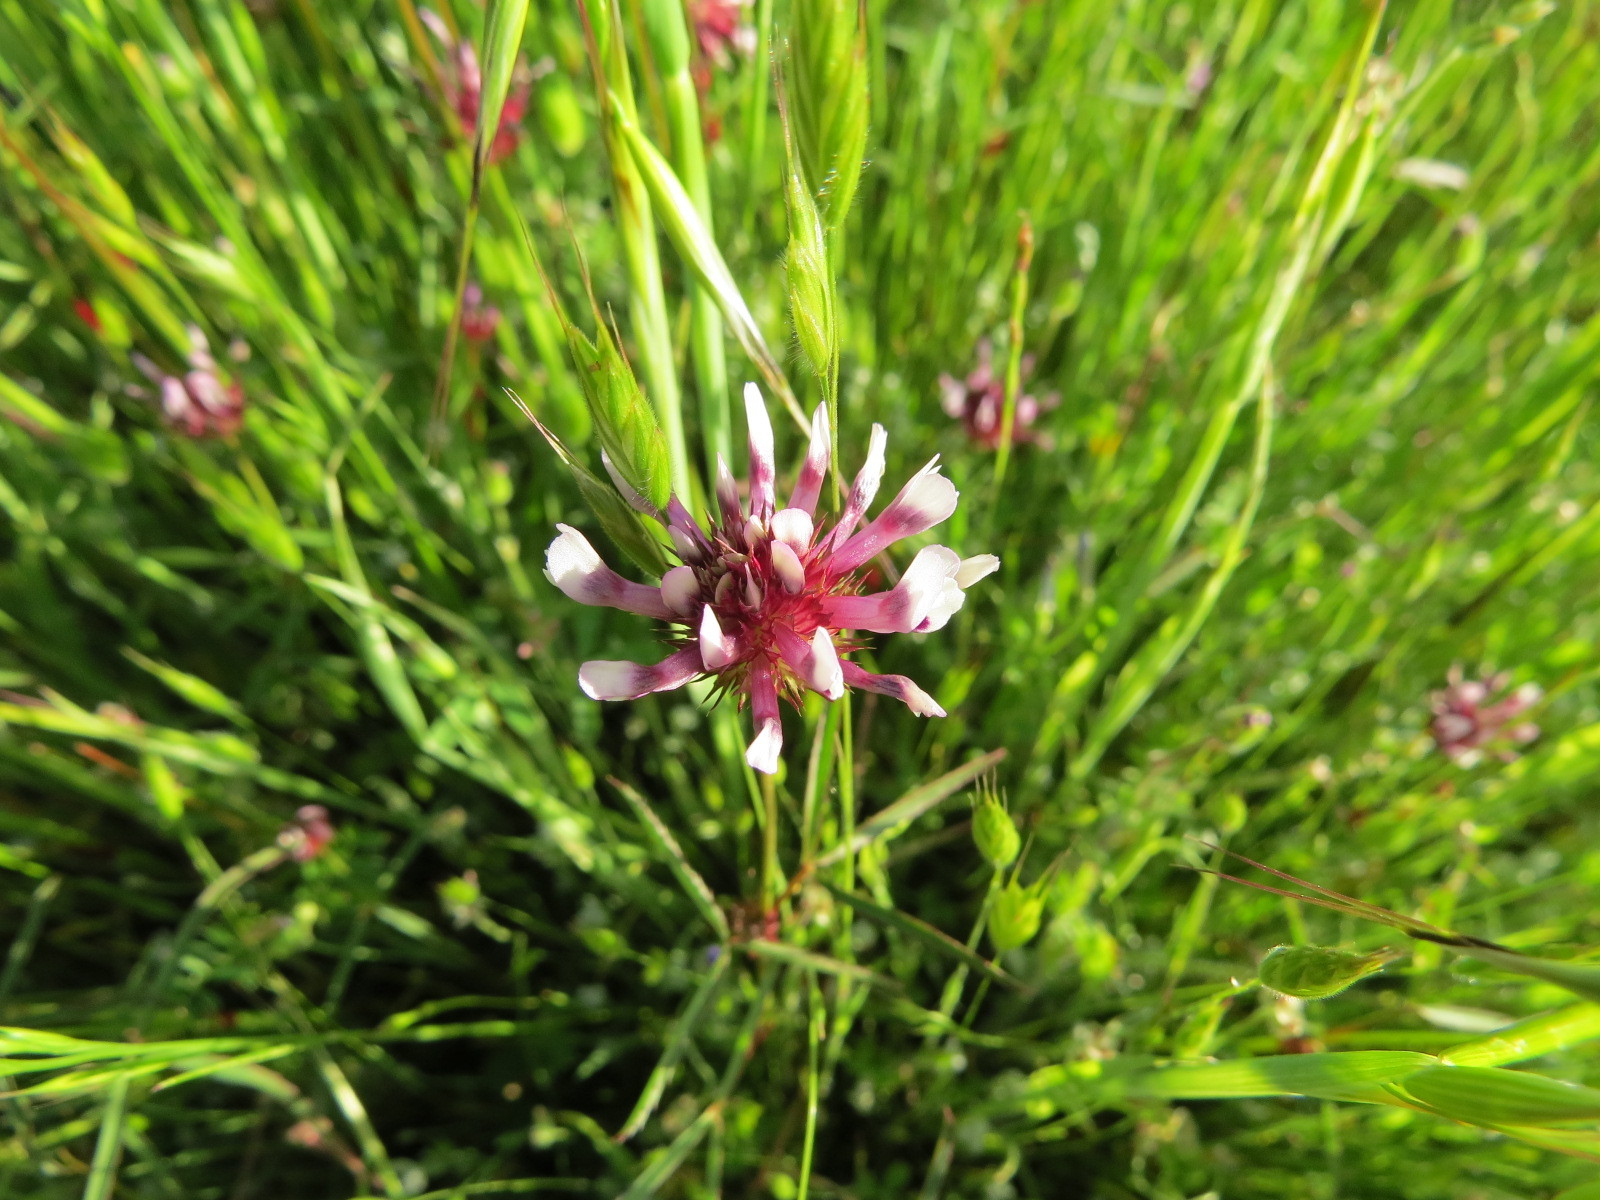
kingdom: Plantae
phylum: Tracheophyta
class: Magnoliopsida
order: Fabales
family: Fabaceae
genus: Trifolium
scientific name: Trifolium willdenovii
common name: Tomcat clover
